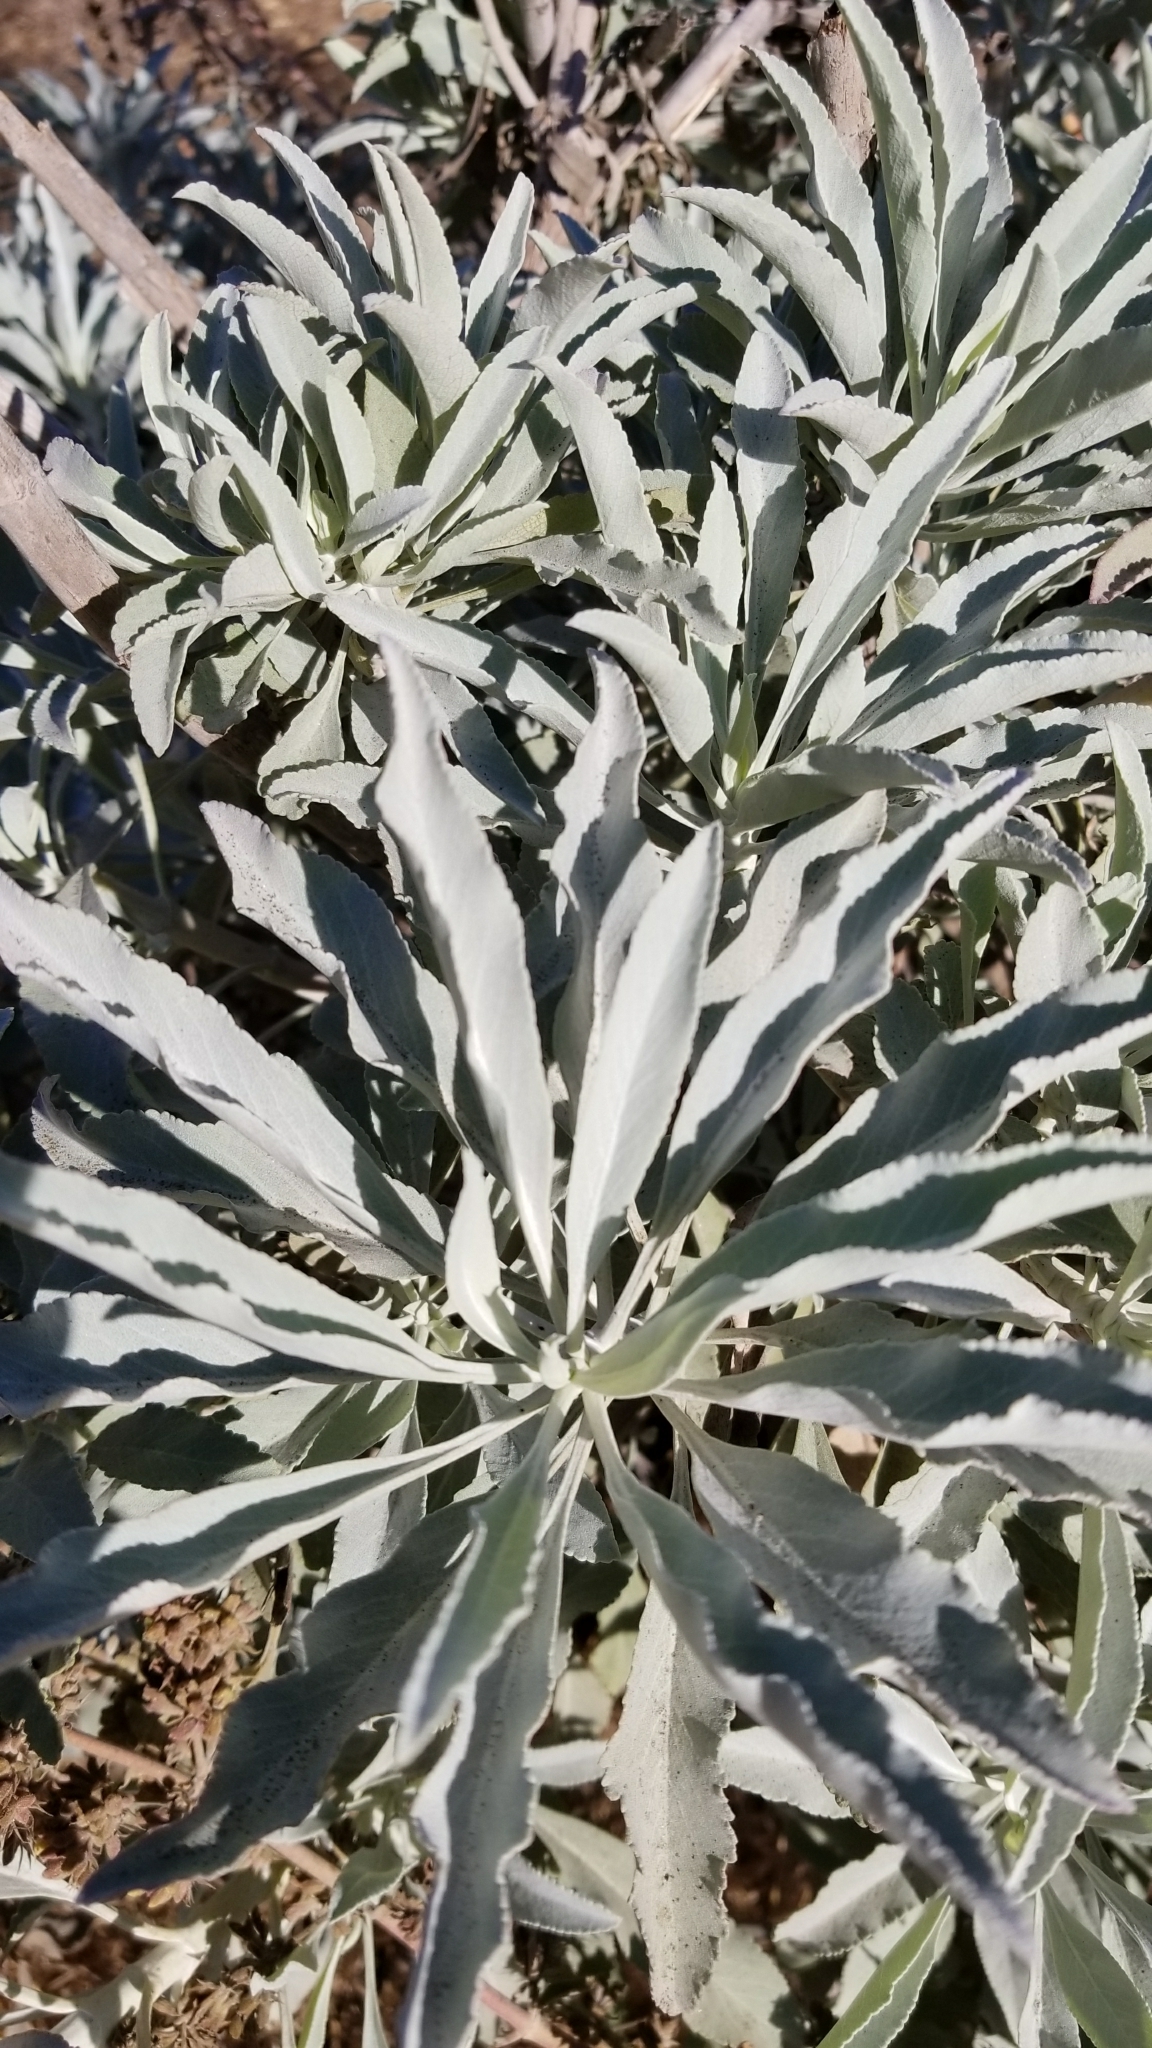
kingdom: Plantae
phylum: Tracheophyta
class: Magnoliopsida
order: Lamiales
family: Lamiaceae
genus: Salvia
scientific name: Salvia apiana
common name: White sage
